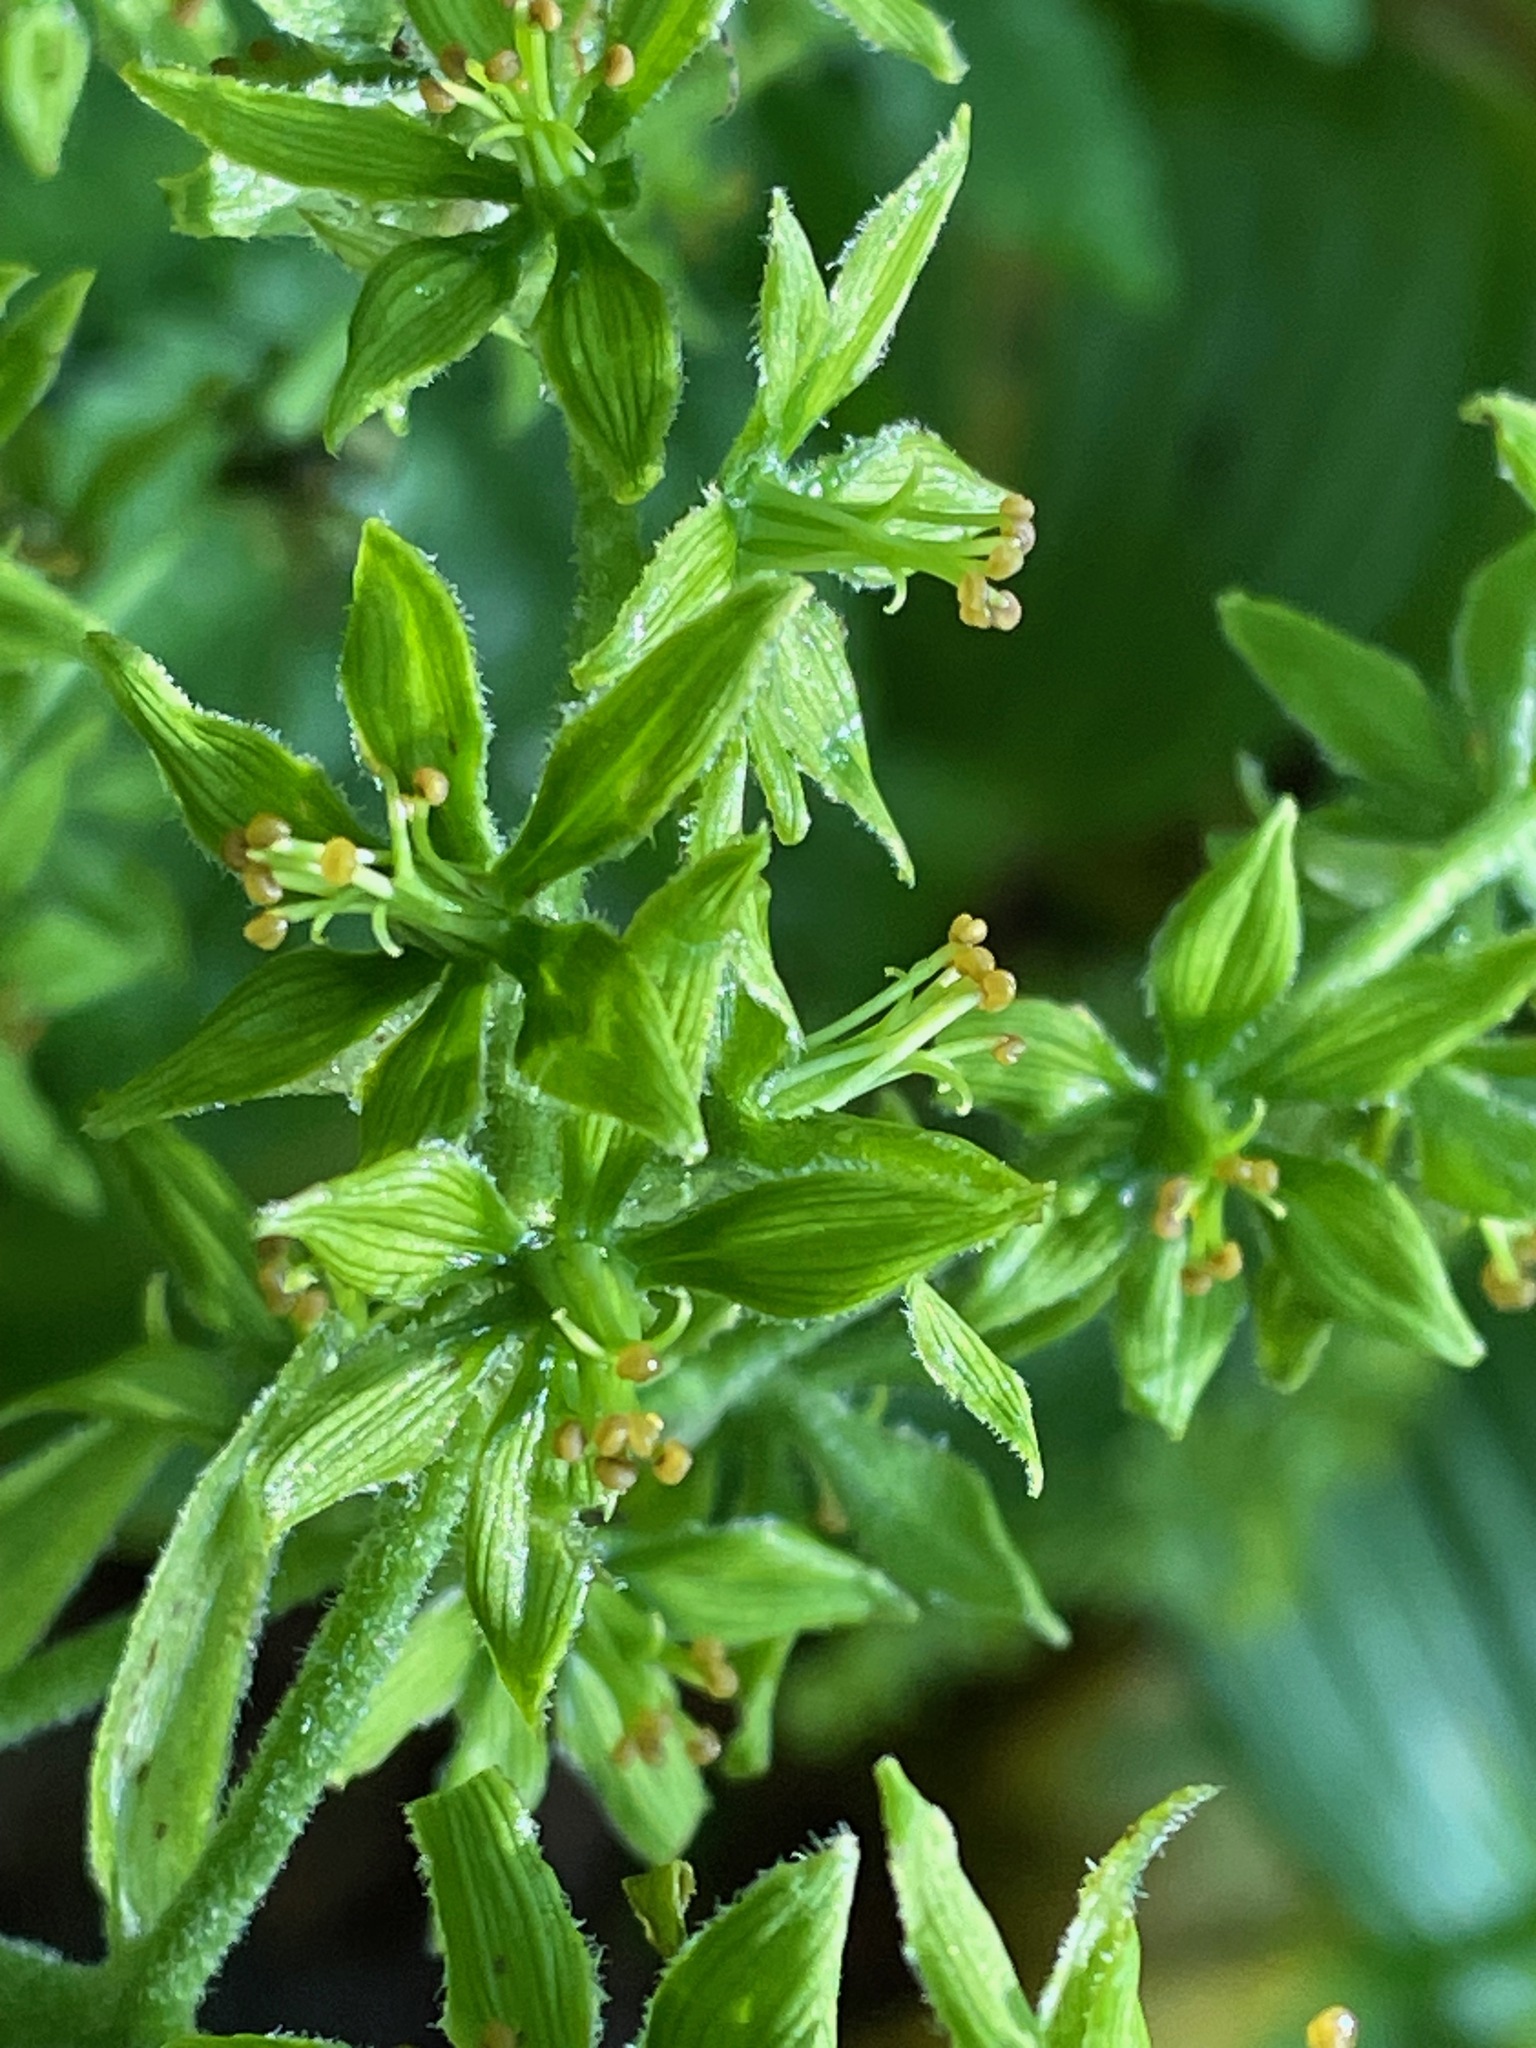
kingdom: Plantae
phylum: Tracheophyta
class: Liliopsida
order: Liliales
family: Melanthiaceae
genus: Veratrum
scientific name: Veratrum viride
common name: American false hellebore
